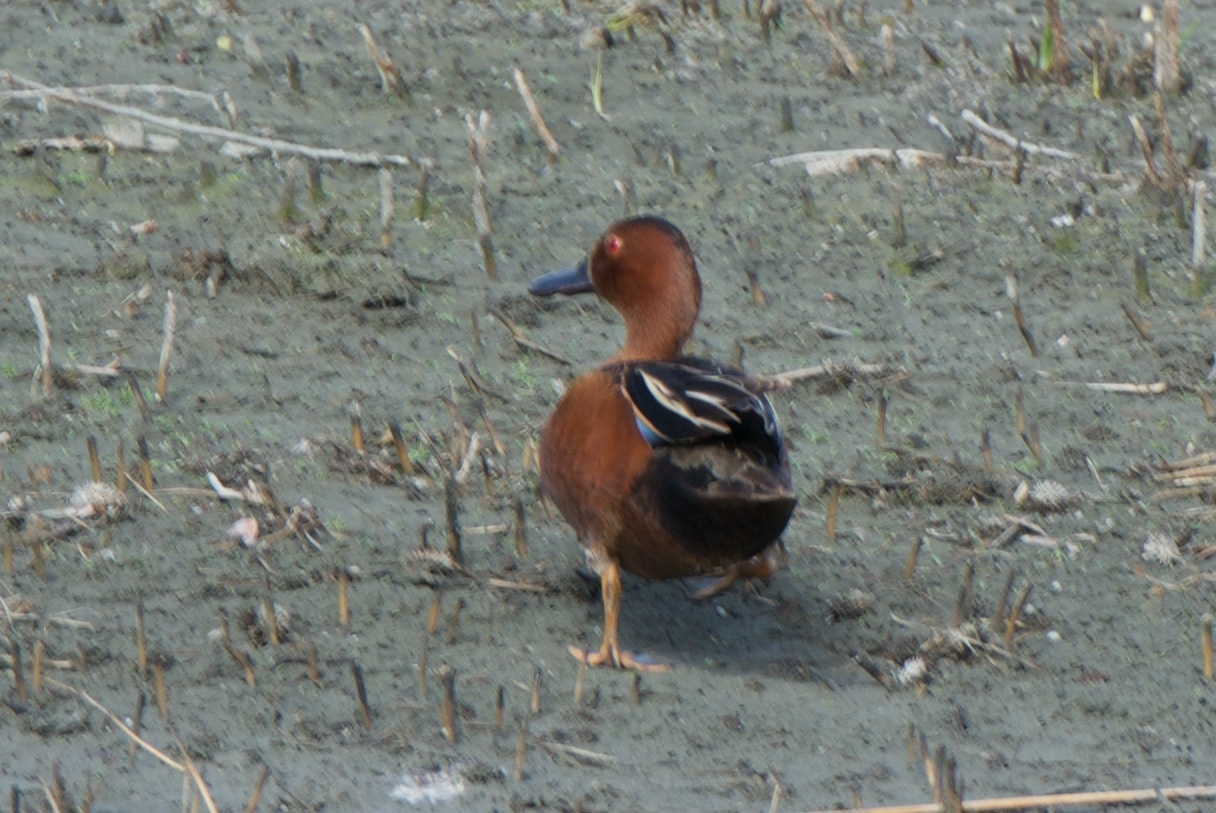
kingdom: Animalia
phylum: Chordata
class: Aves
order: Anseriformes
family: Anatidae
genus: Spatula
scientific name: Spatula cyanoptera
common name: Cinnamon teal
